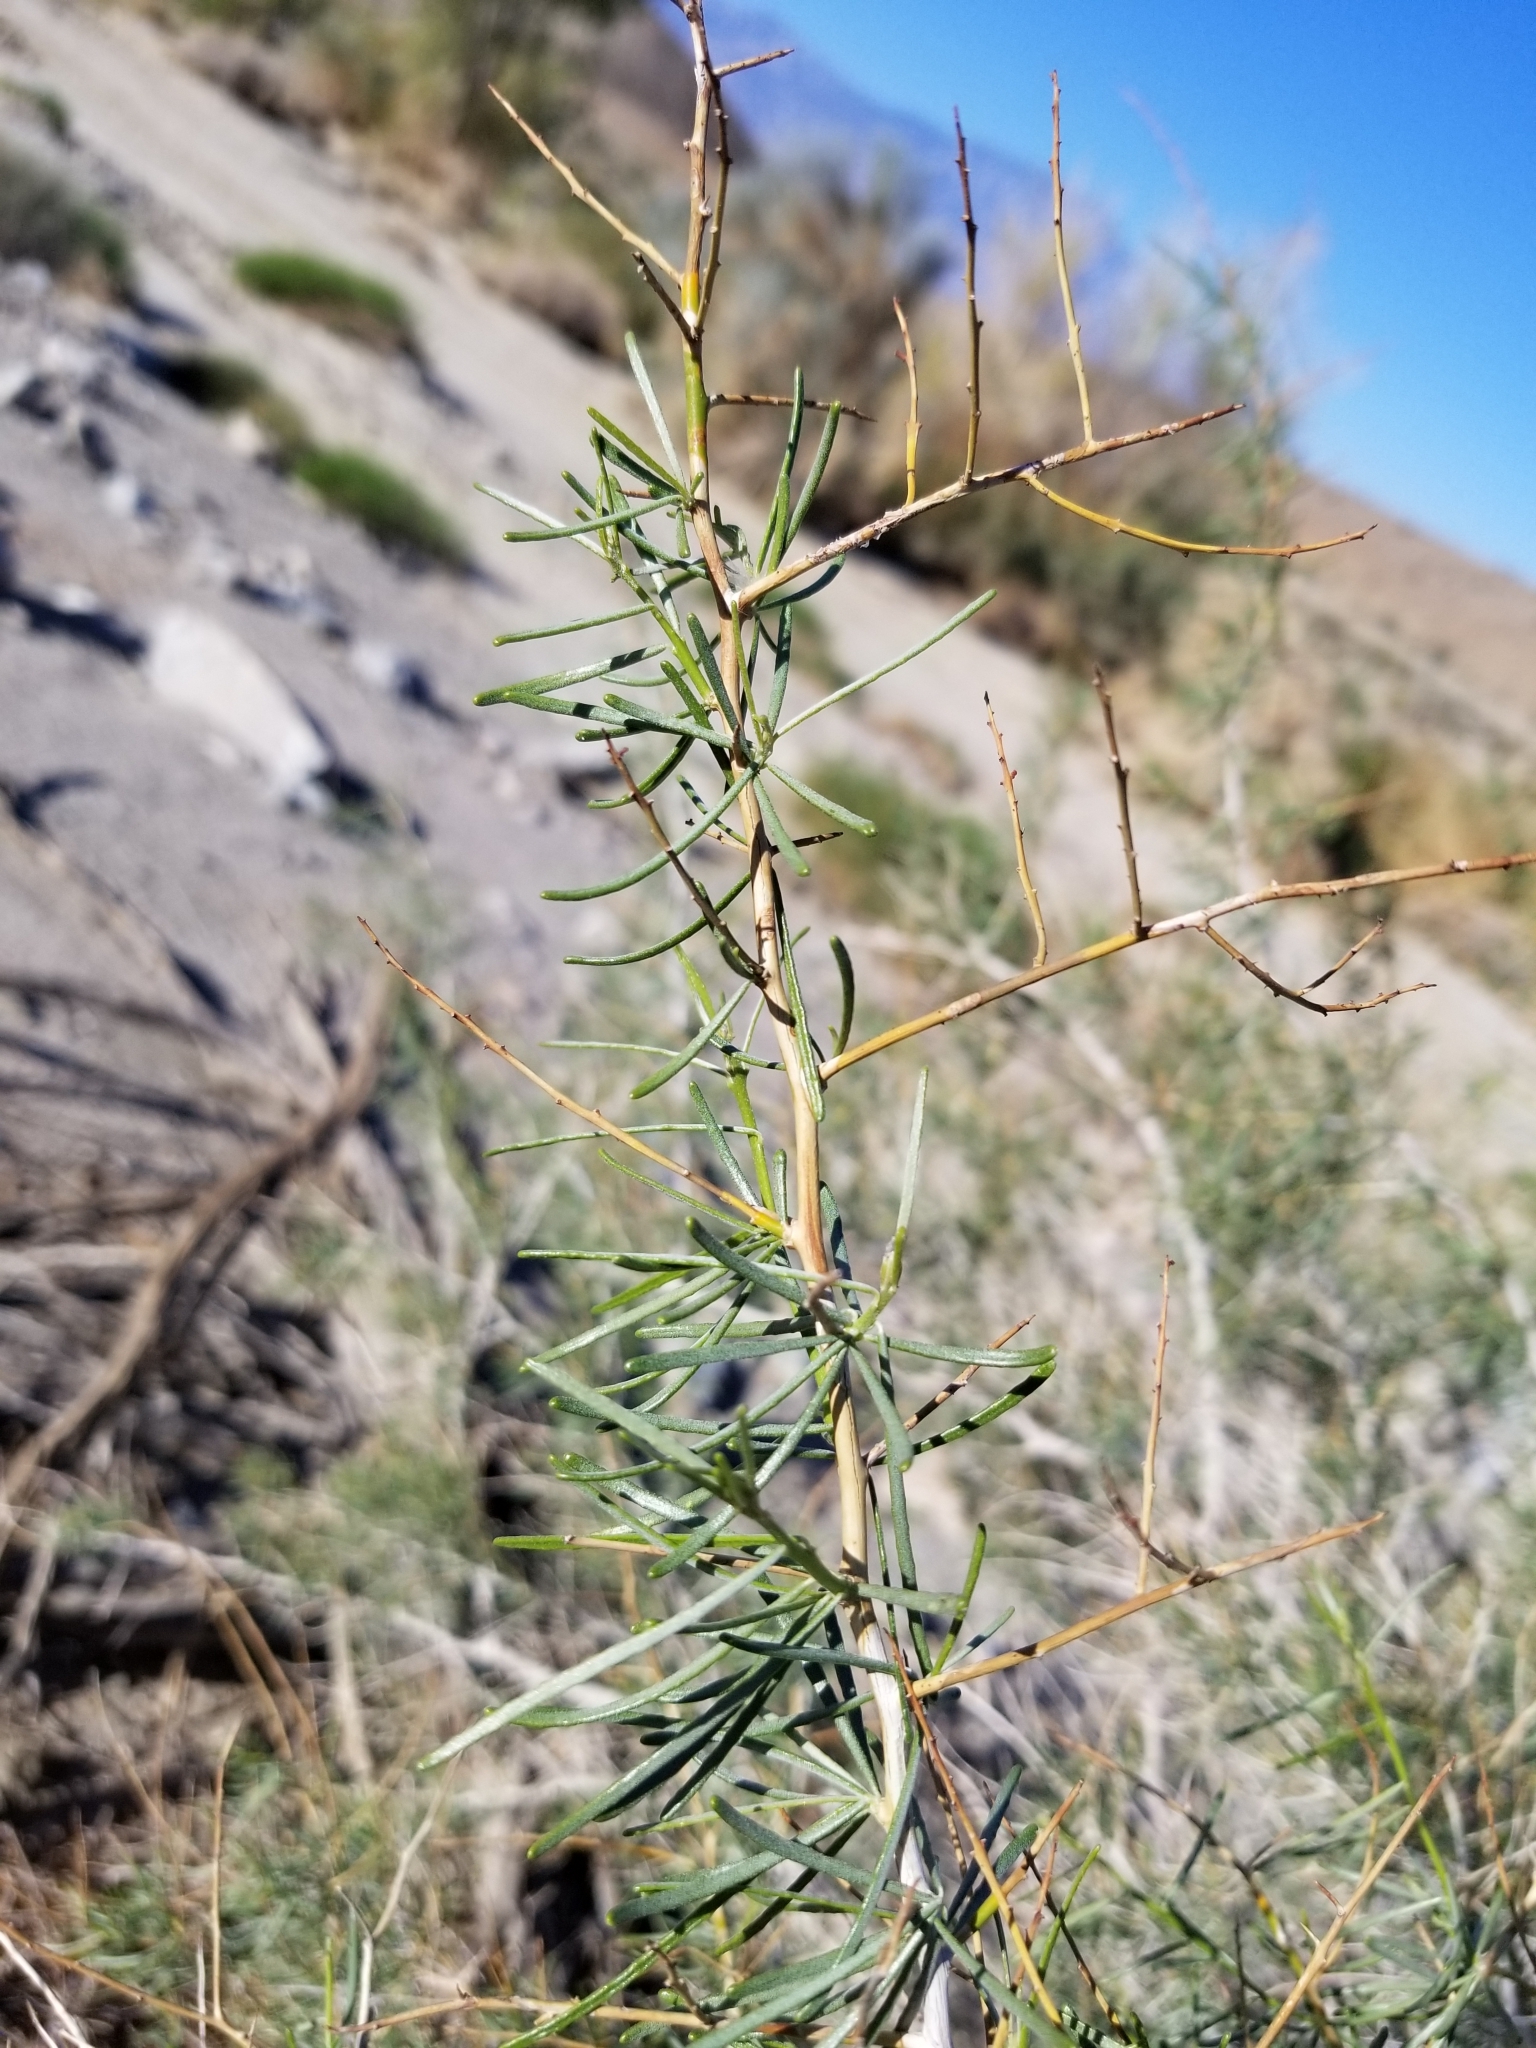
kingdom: Plantae
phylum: Tracheophyta
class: Magnoliopsida
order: Fabales
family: Fabaceae
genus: Psorothamnus
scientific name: Psorothamnus schottii
